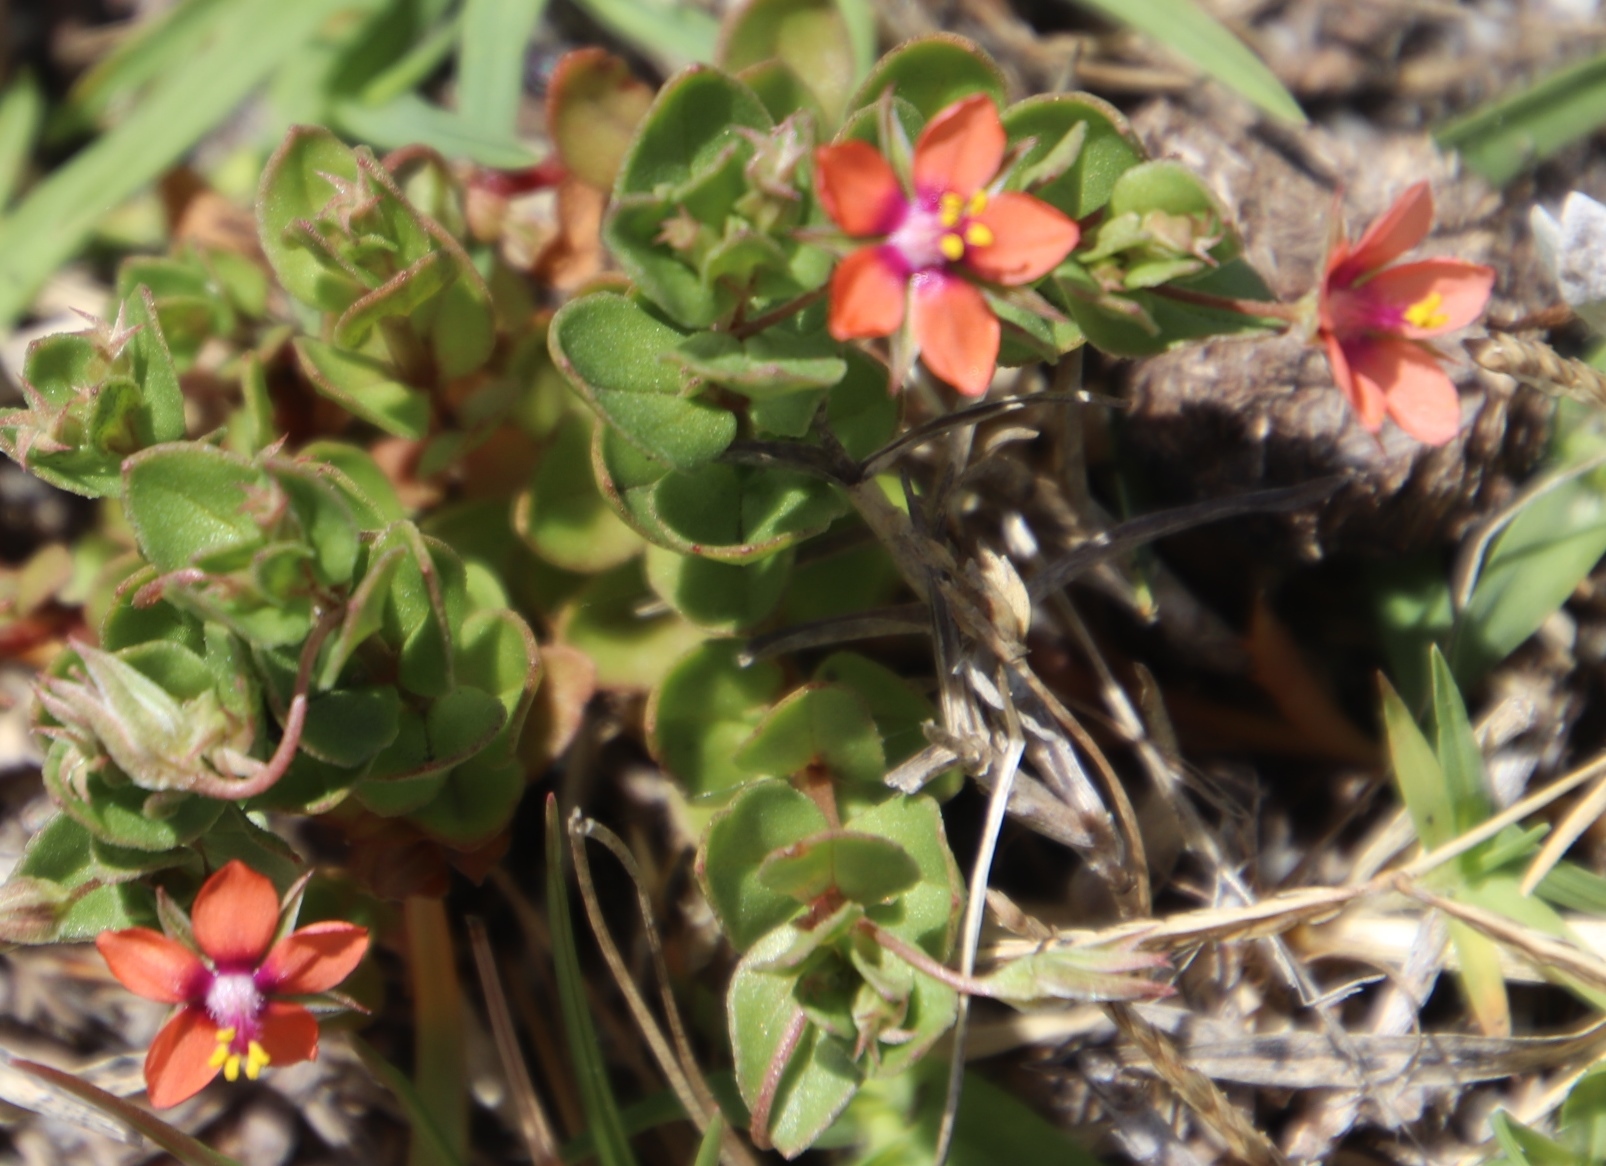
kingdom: Plantae
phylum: Tracheophyta
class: Magnoliopsida
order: Ericales
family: Primulaceae
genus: Lysimachia
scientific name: Lysimachia arvensis
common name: Scarlet pimpernel
